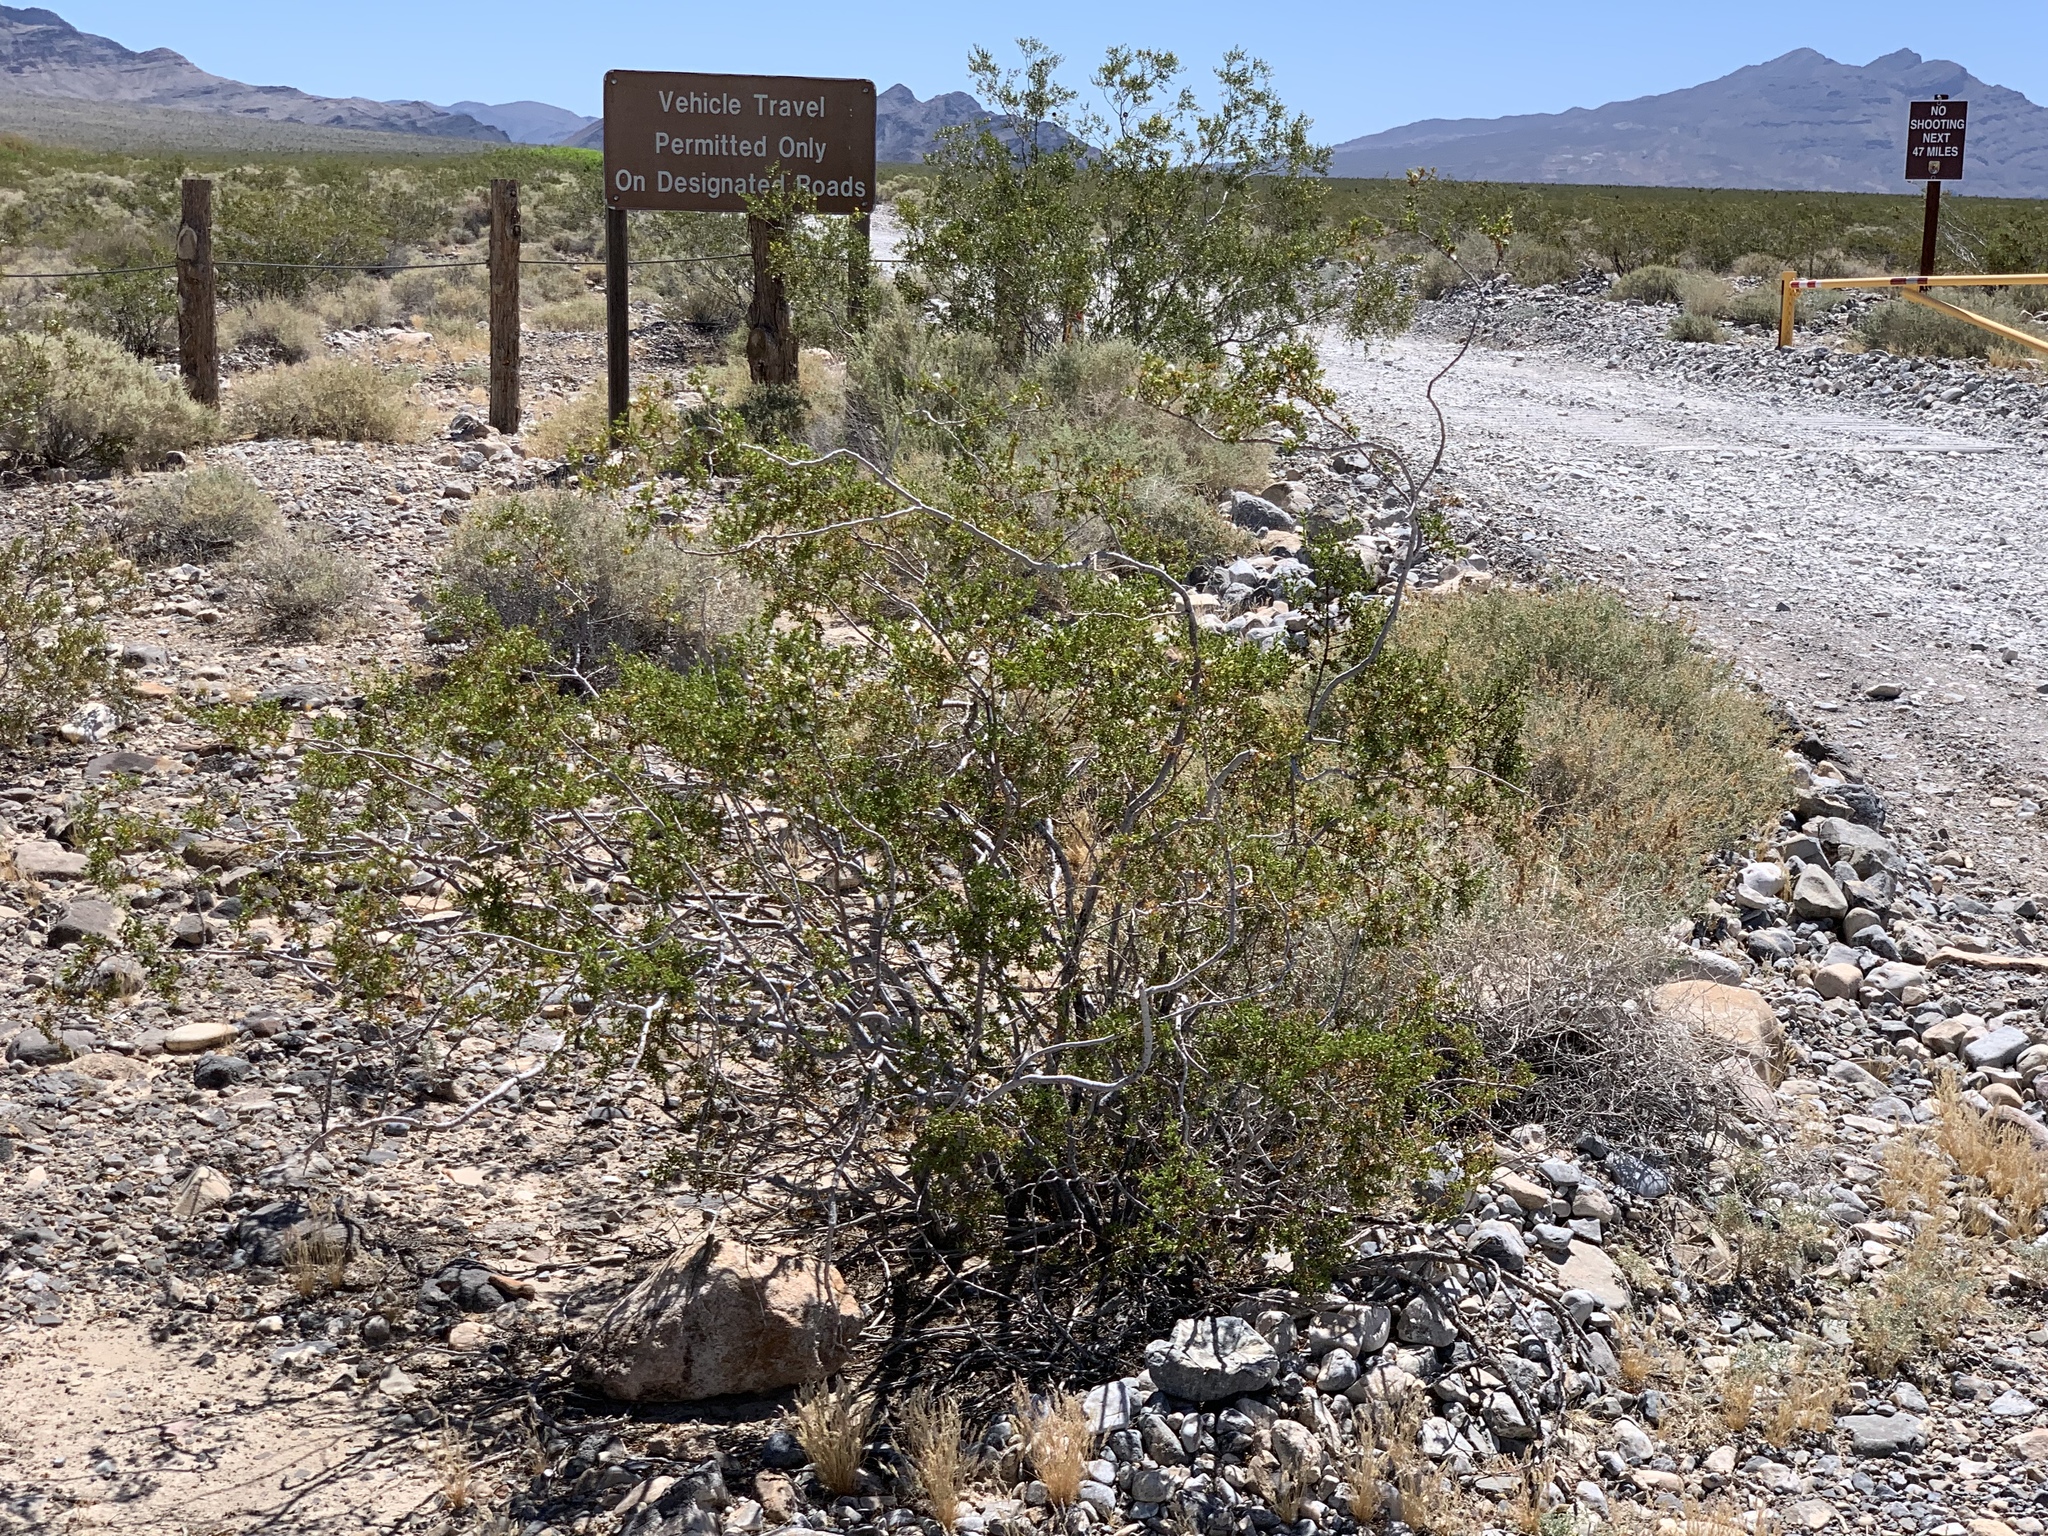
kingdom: Plantae
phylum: Tracheophyta
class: Magnoliopsida
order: Zygophyllales
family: Zygophyllaceae
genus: Larrea
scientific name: Larrea tridentata
